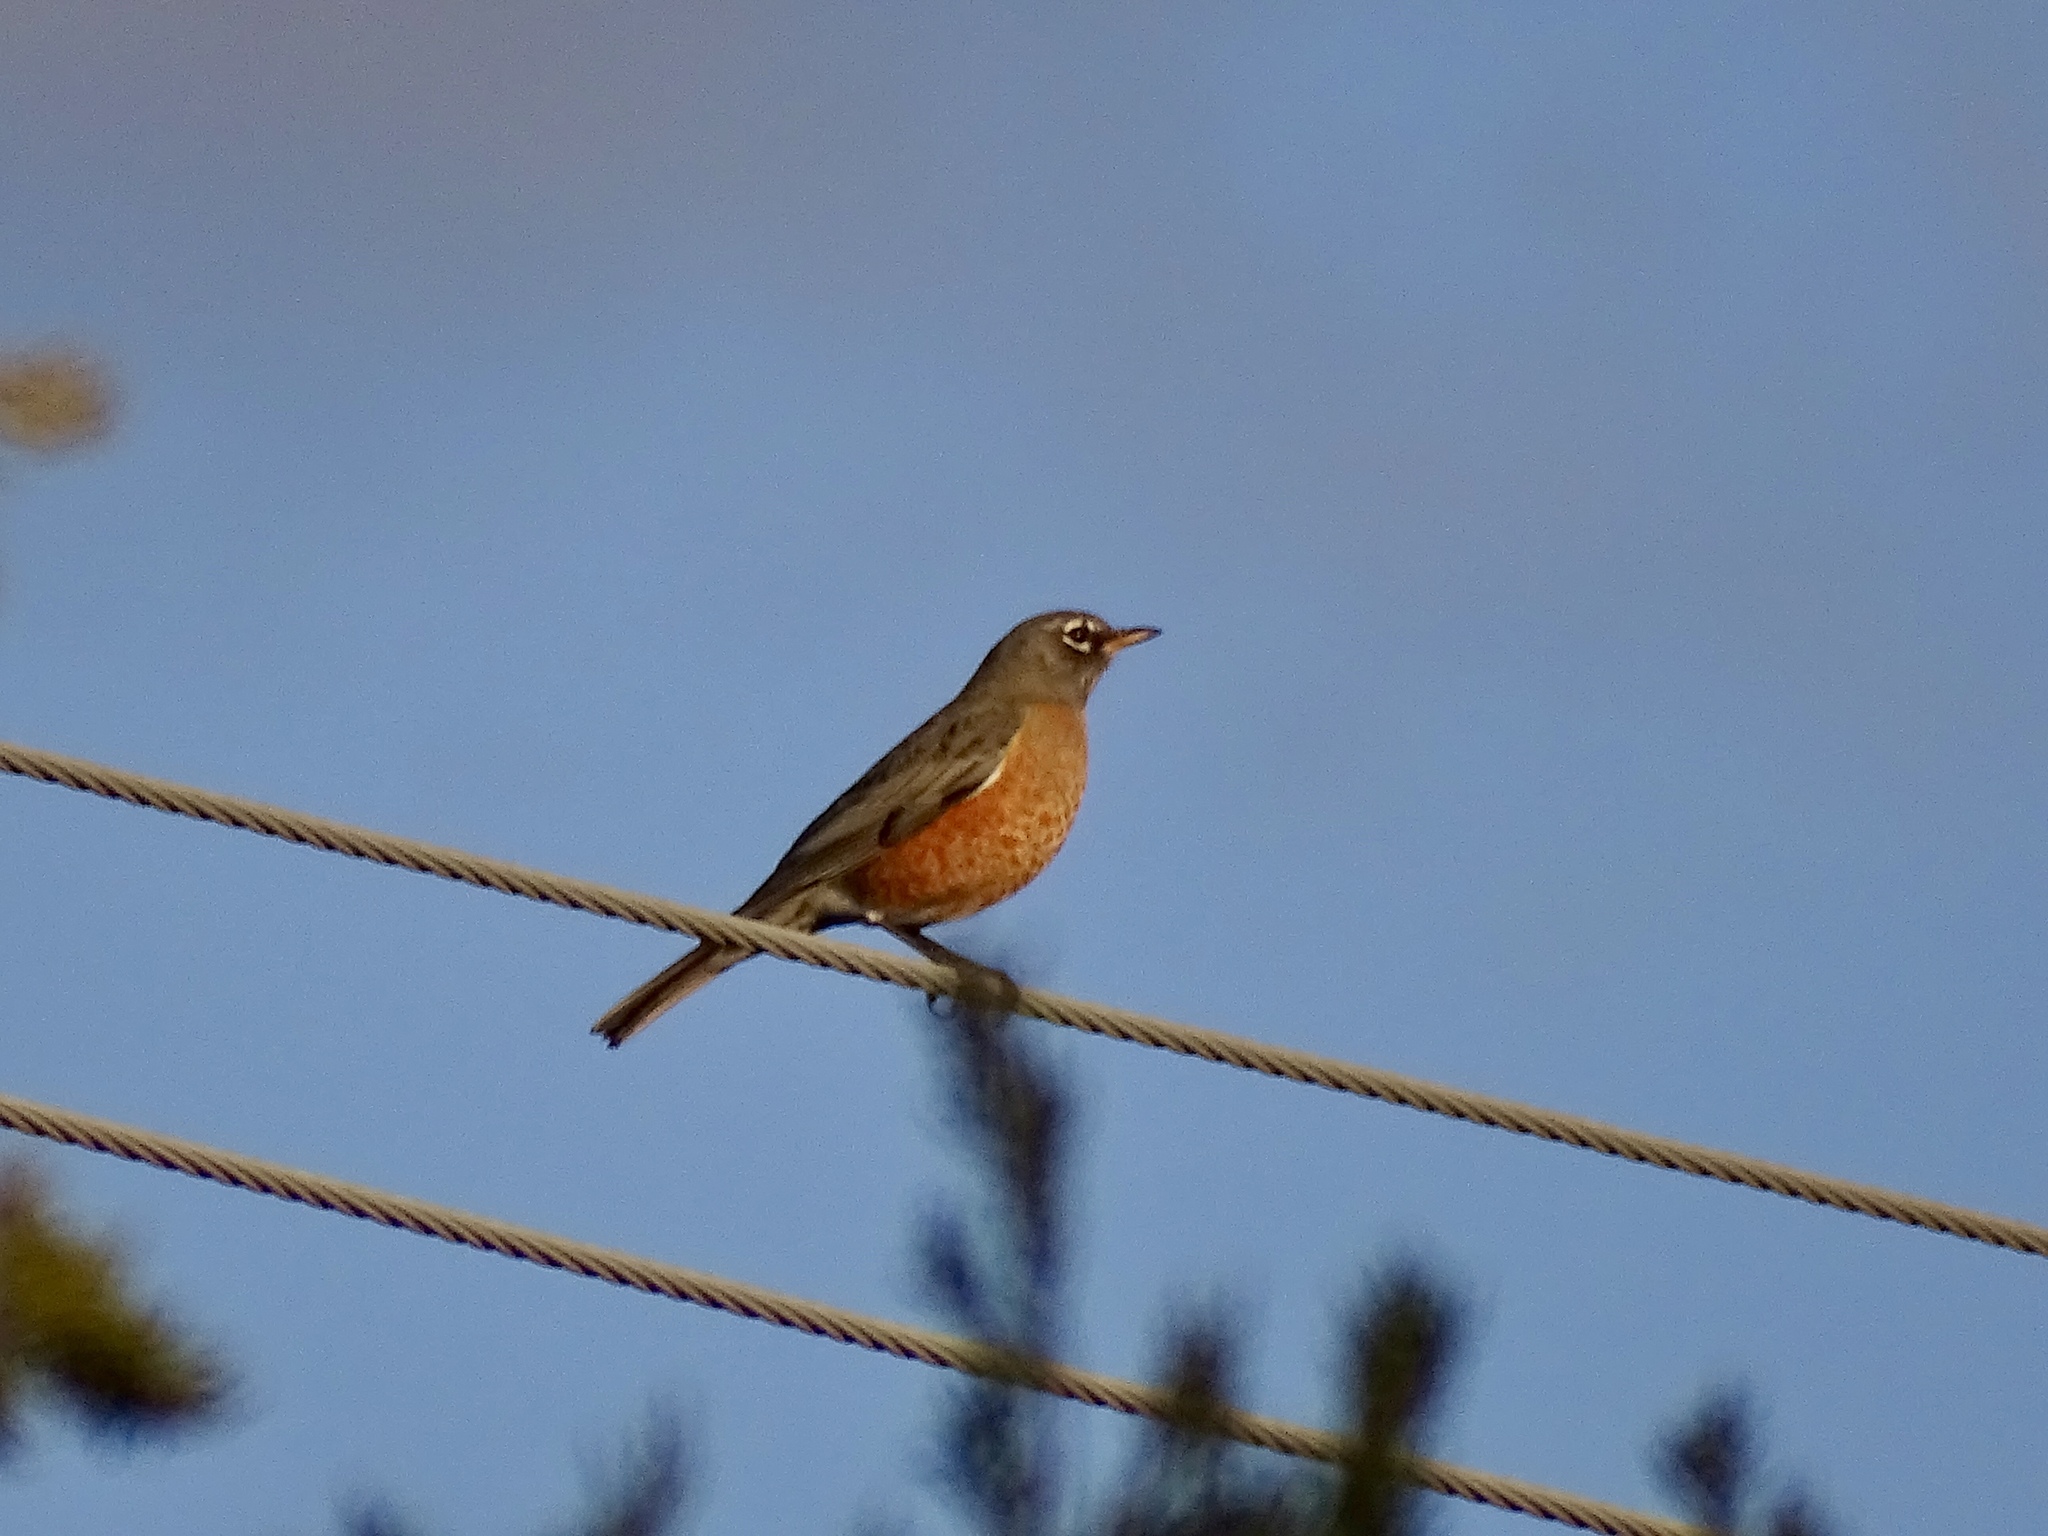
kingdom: Animalia
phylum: Chordata
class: Aves
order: Passeriformes
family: Turdidae
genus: Turdus
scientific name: Turdus migratorius
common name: American robin
